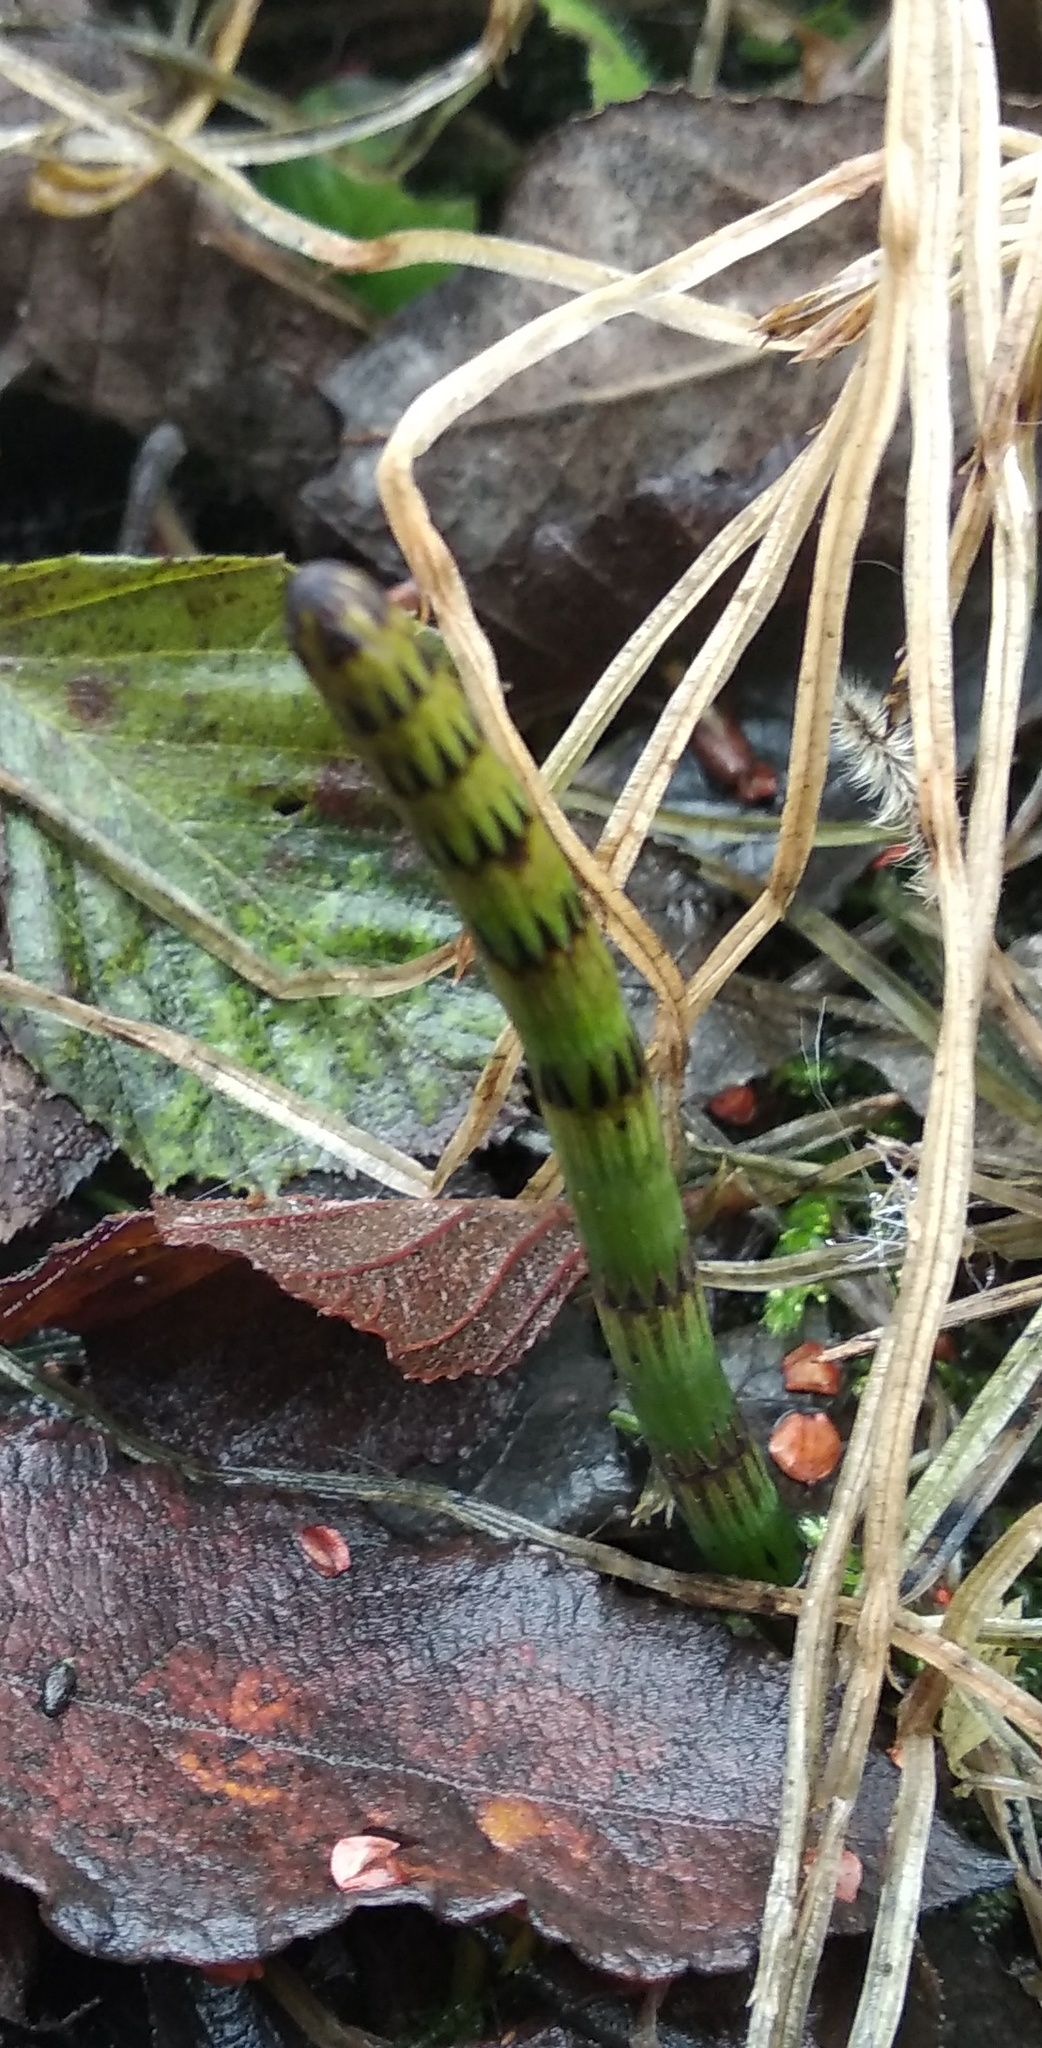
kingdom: Plantae
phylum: Tracheophyta
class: Polypodiopsida
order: Equisetales
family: Equisetaceae
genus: Equisetum
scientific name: Equisetum fluviatile
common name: Water horsetail
